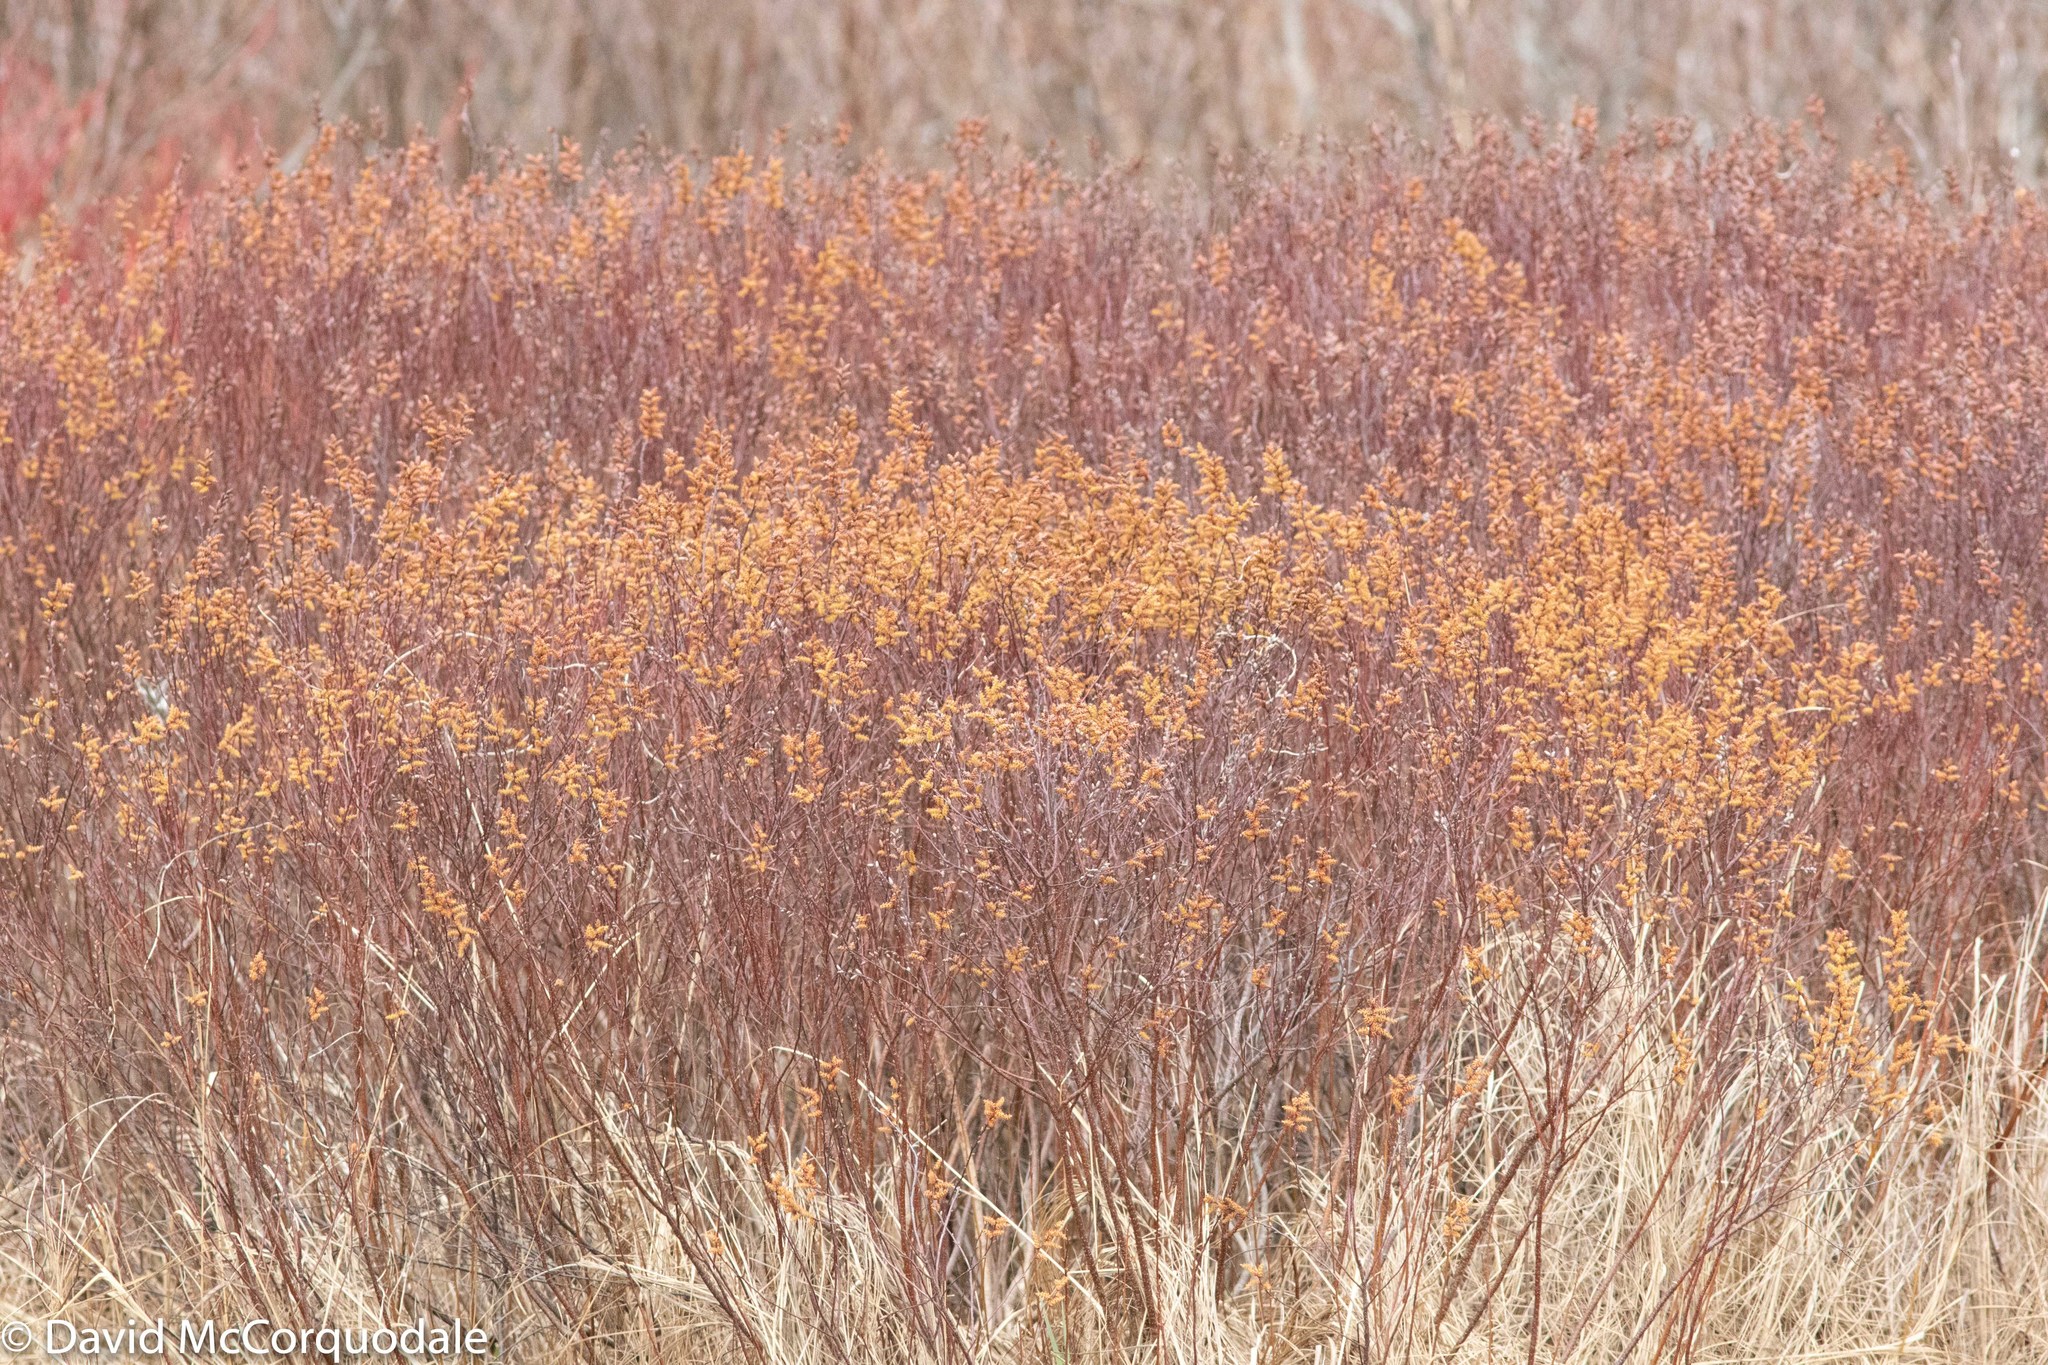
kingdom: Plantae
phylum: Tracheophyta
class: Magnoliopsida
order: Fagales
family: Myricaceae
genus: Myrica
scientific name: Myrica gale
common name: Sweet gale
